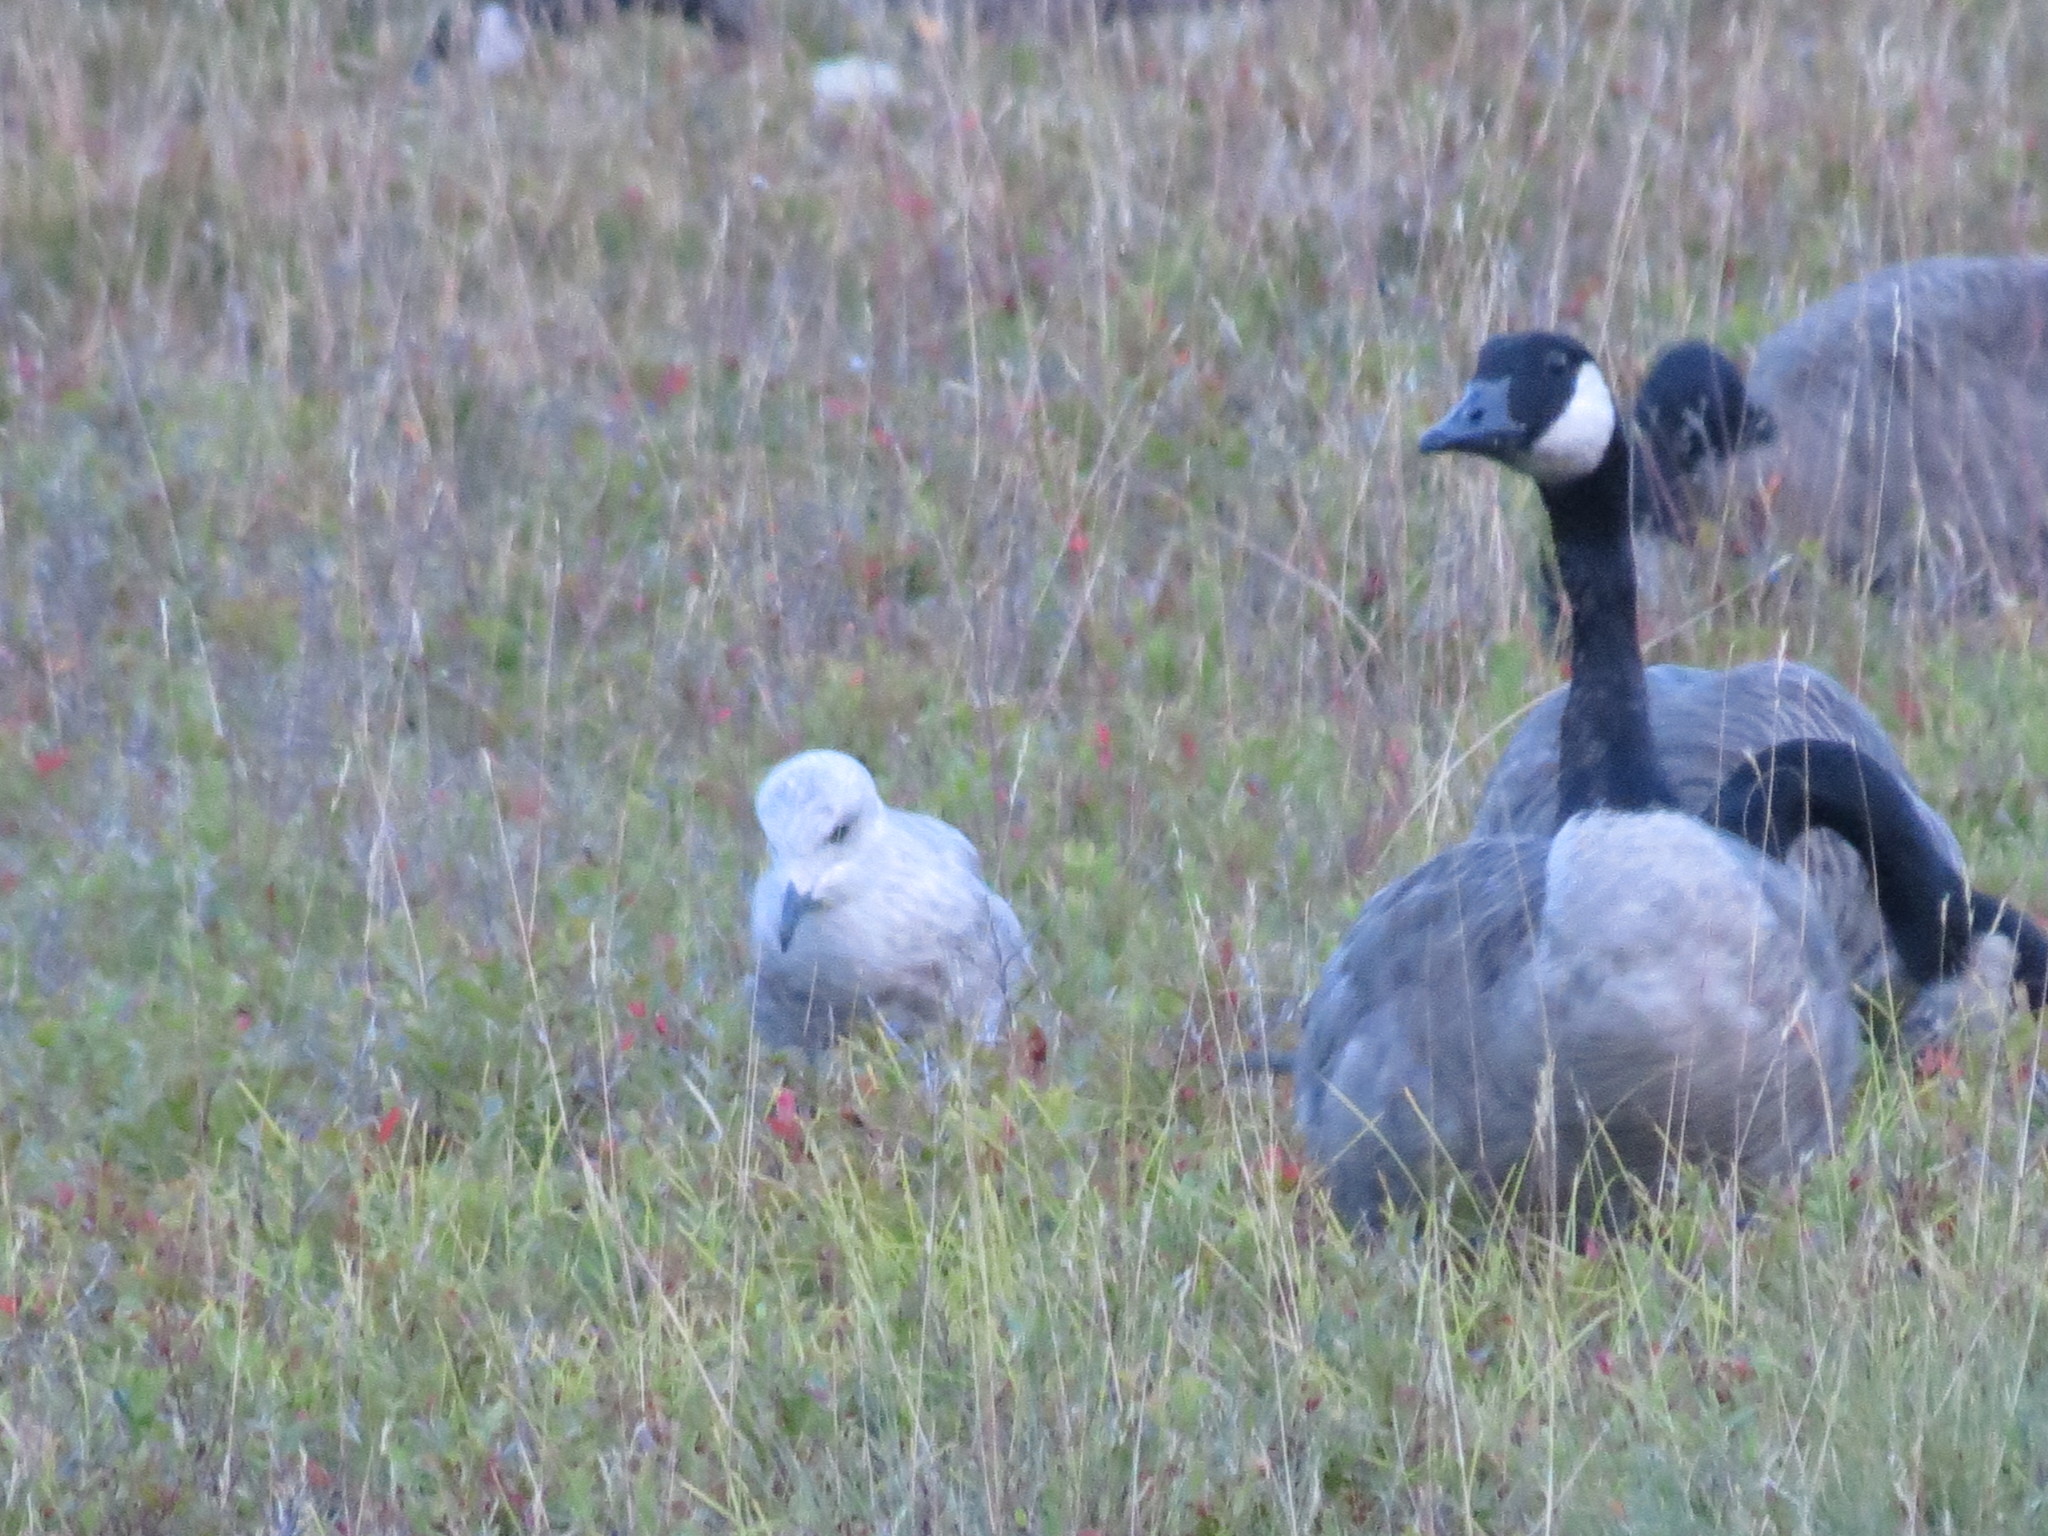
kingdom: Animalia
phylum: Chordata
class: Aves
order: Anseriformes
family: Anatidae
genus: Branta
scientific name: Branta canadensis
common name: Canada goose
